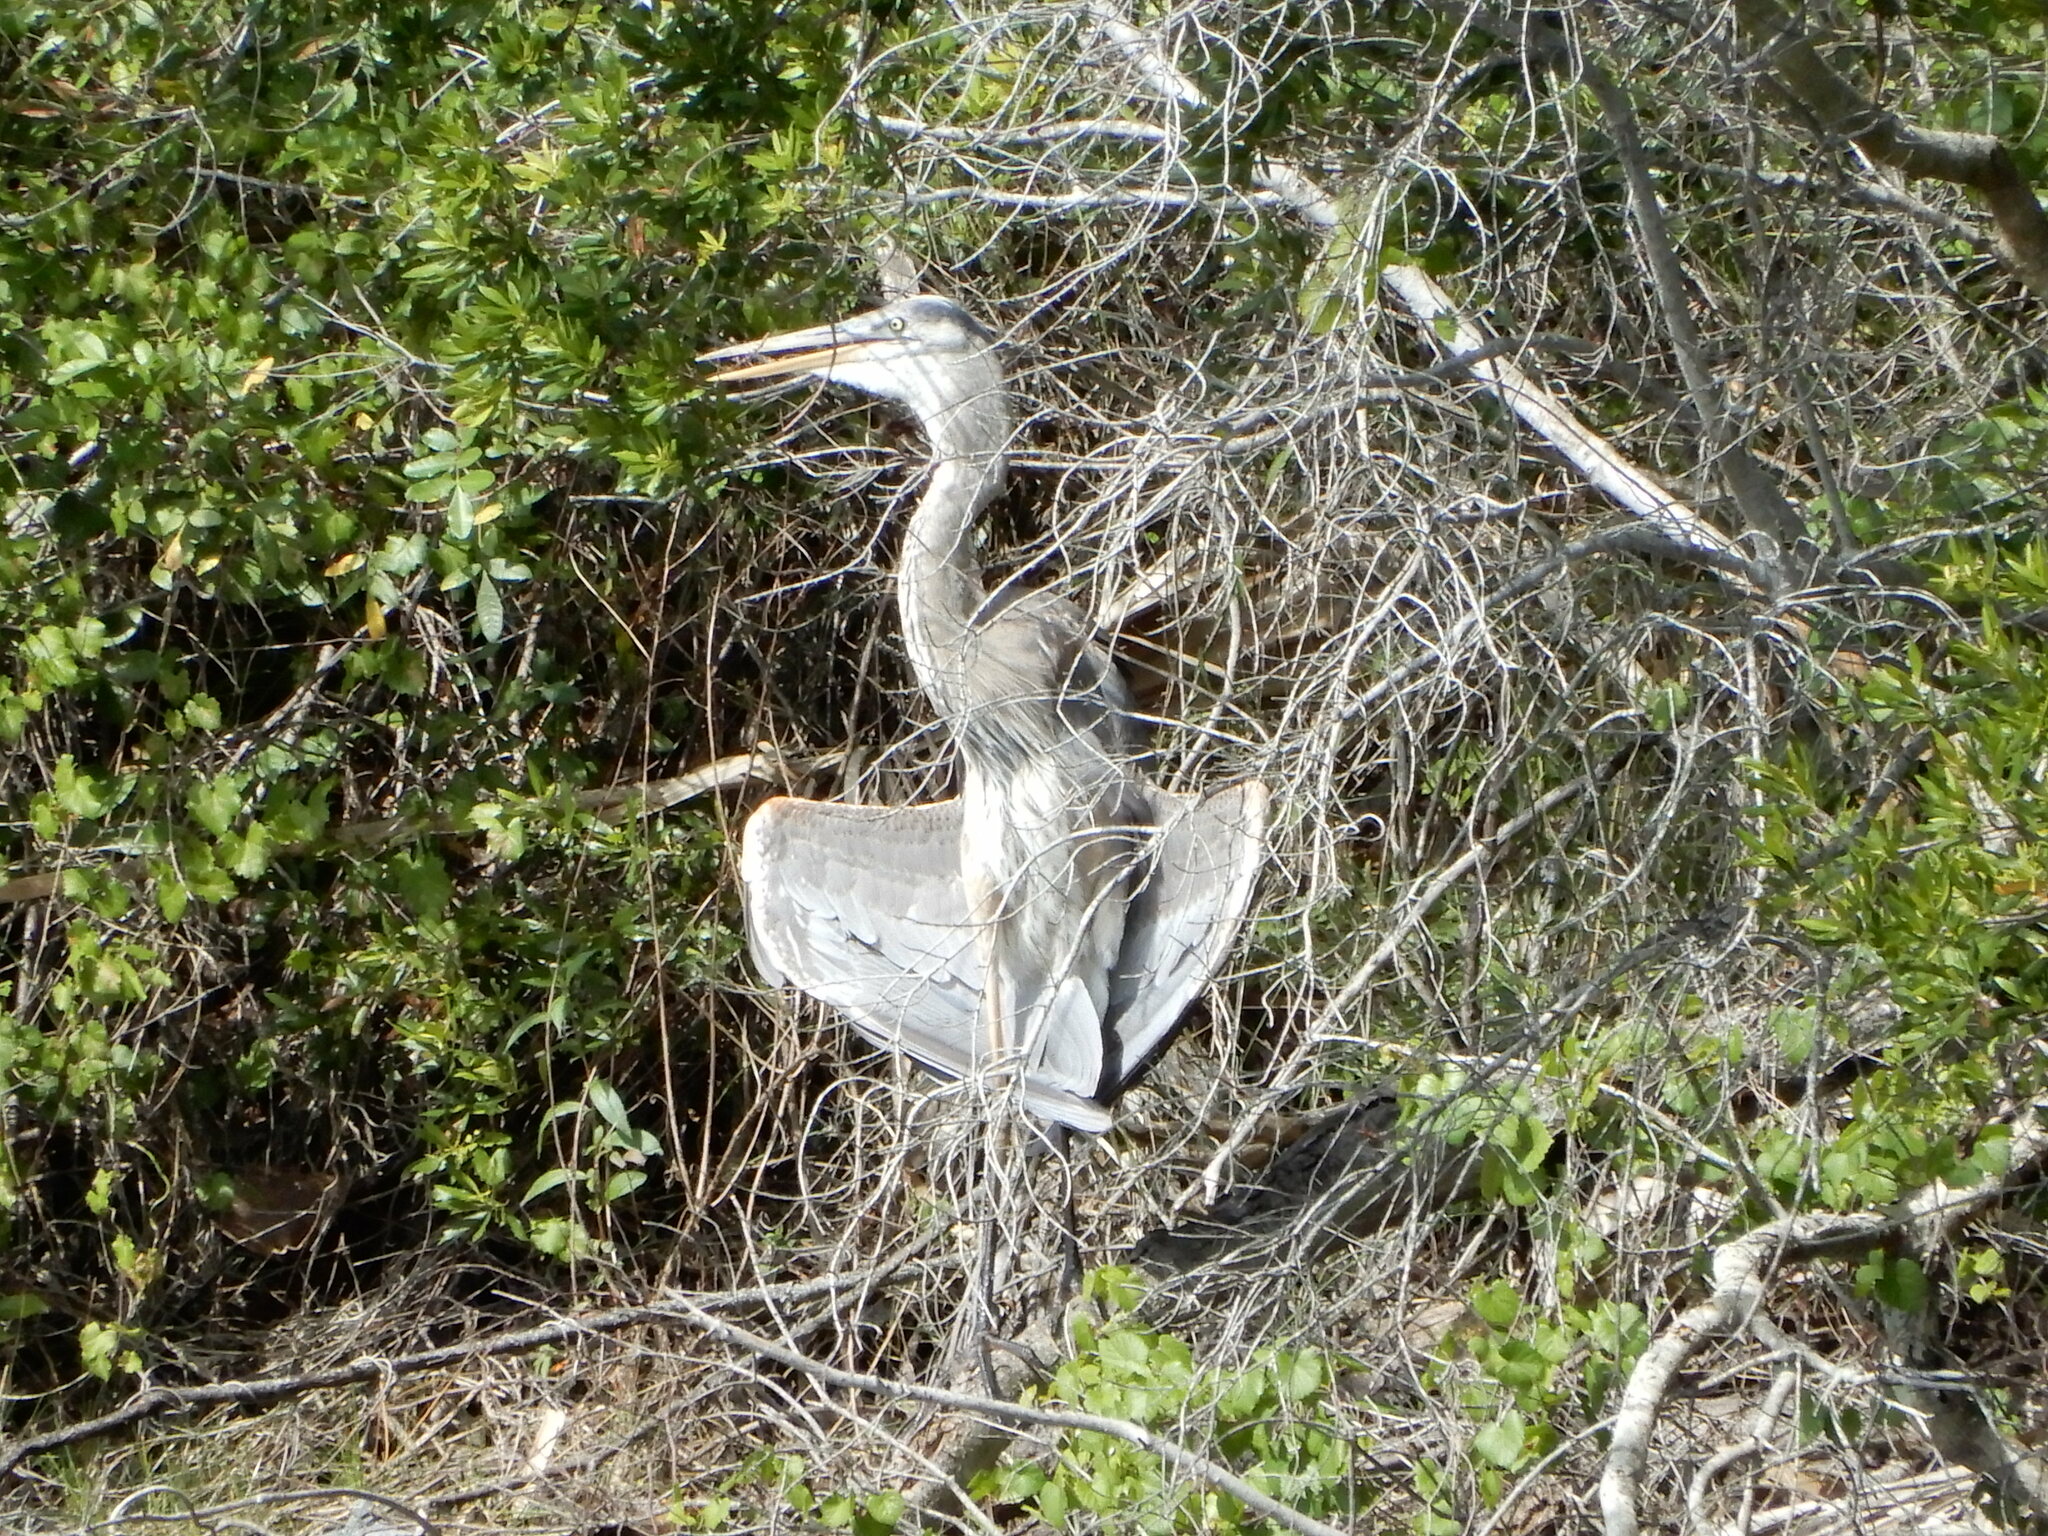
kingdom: Animalia
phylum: Chordata
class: Aves
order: Pelecaniformes
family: Ardeidae
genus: Ardea
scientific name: Ardea herodias
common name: Great blue heron
